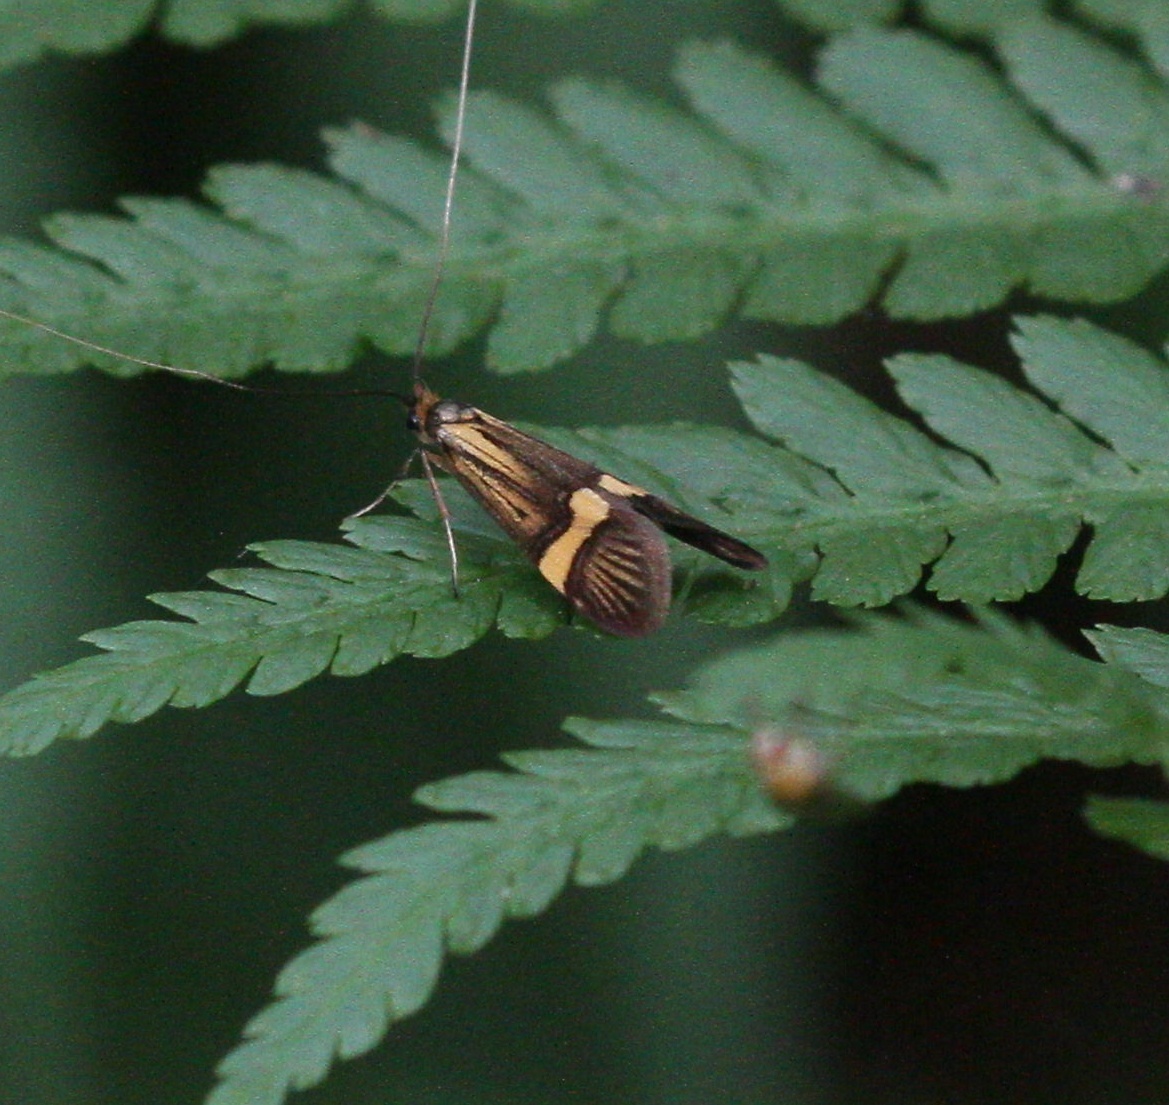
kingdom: Animalia
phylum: Arthropoda
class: Insecta
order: Lepidoptera
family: Adelidae
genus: Nemophora
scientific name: Nemophora degeerella
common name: Yellow-barred long-horn
